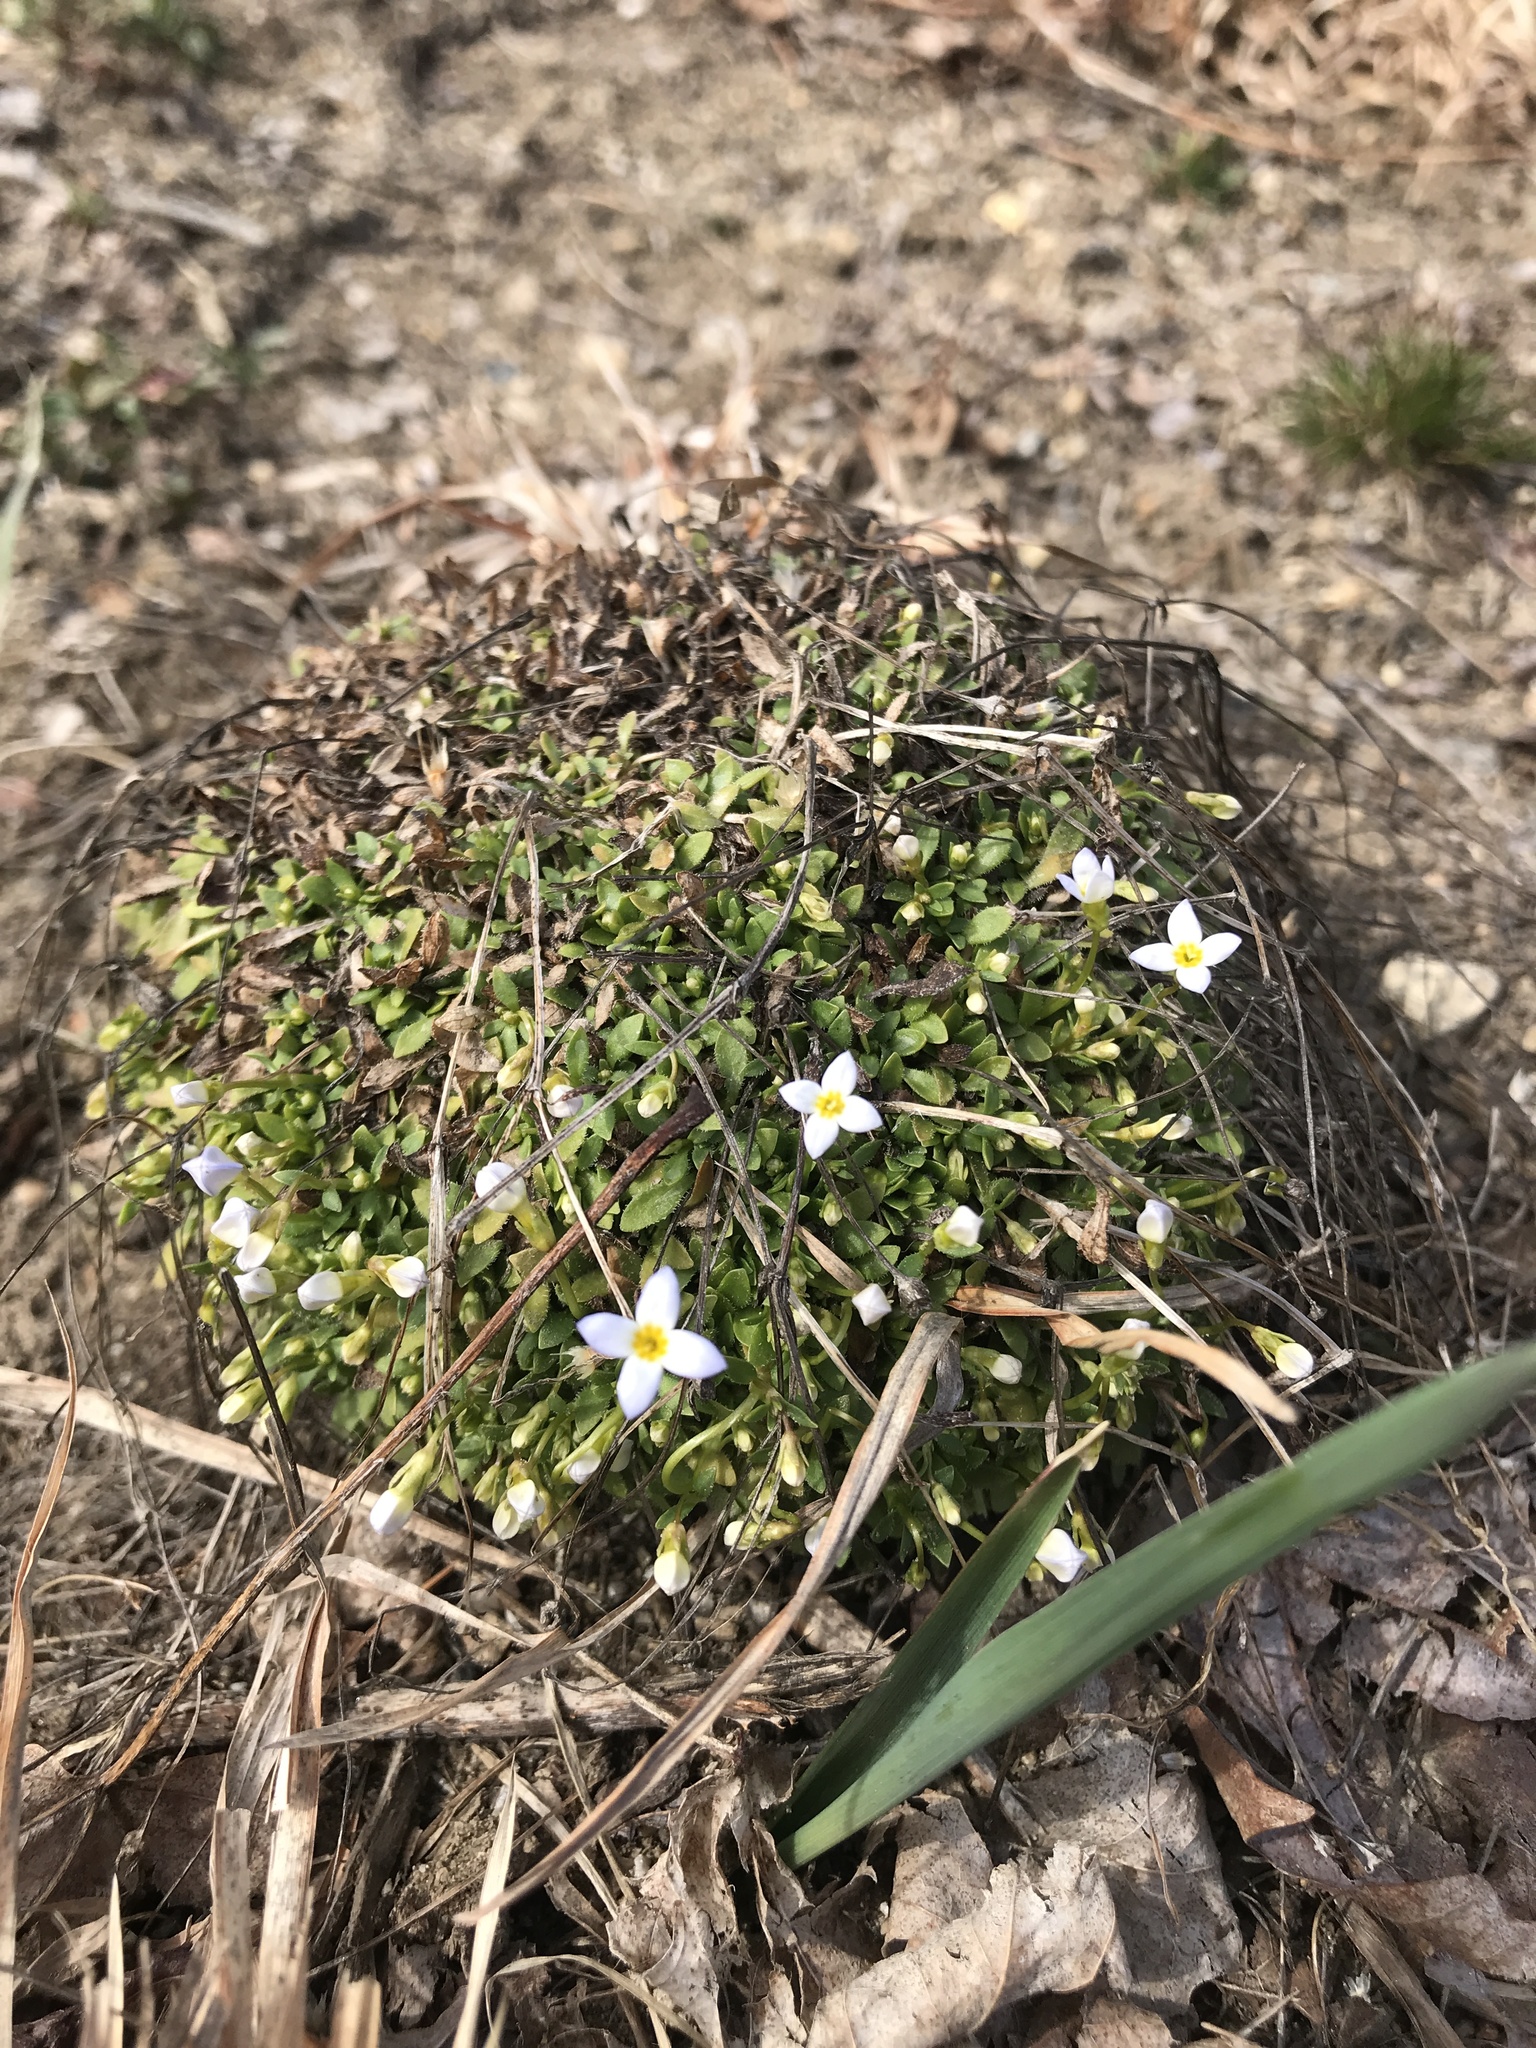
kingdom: Plantae
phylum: Tracheophyta
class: Magnoliopsida
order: Gentianales
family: Rubiaceae
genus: Houstonia
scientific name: Houstonia caerulea
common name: Bluets
